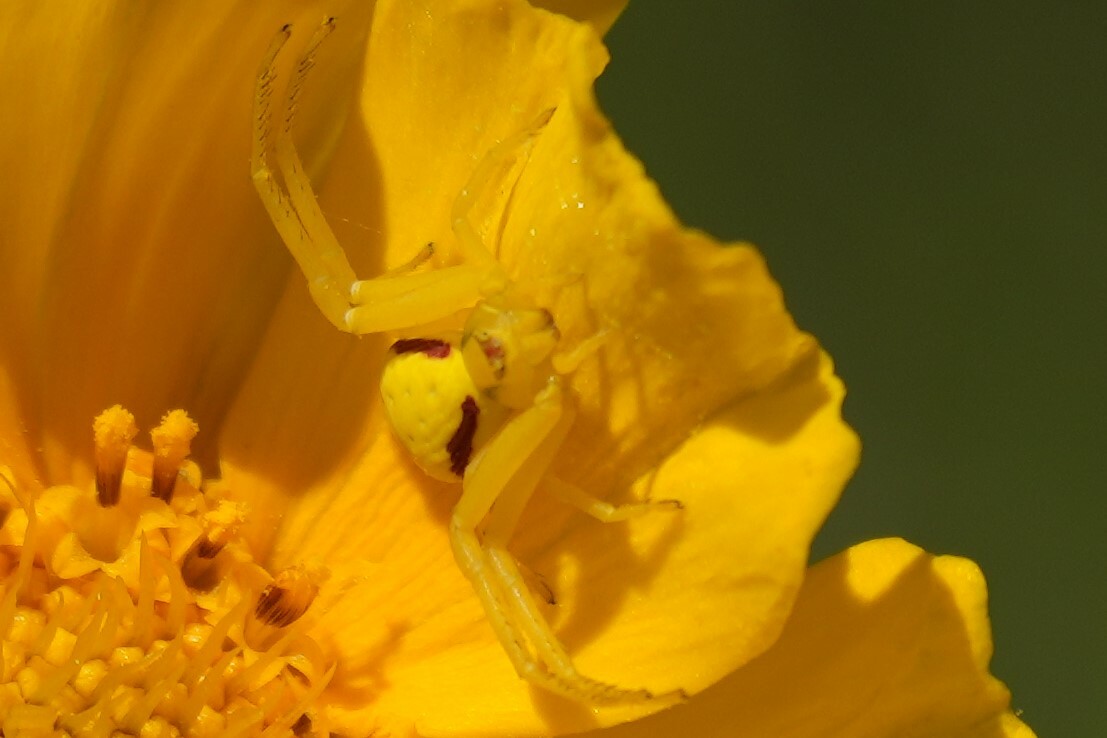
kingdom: Animalia
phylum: Arthropoda
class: Arachnida
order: Araneae
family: Thomisidae
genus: Misumena
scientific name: Misumena vatia
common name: Goldenrod crab spider
